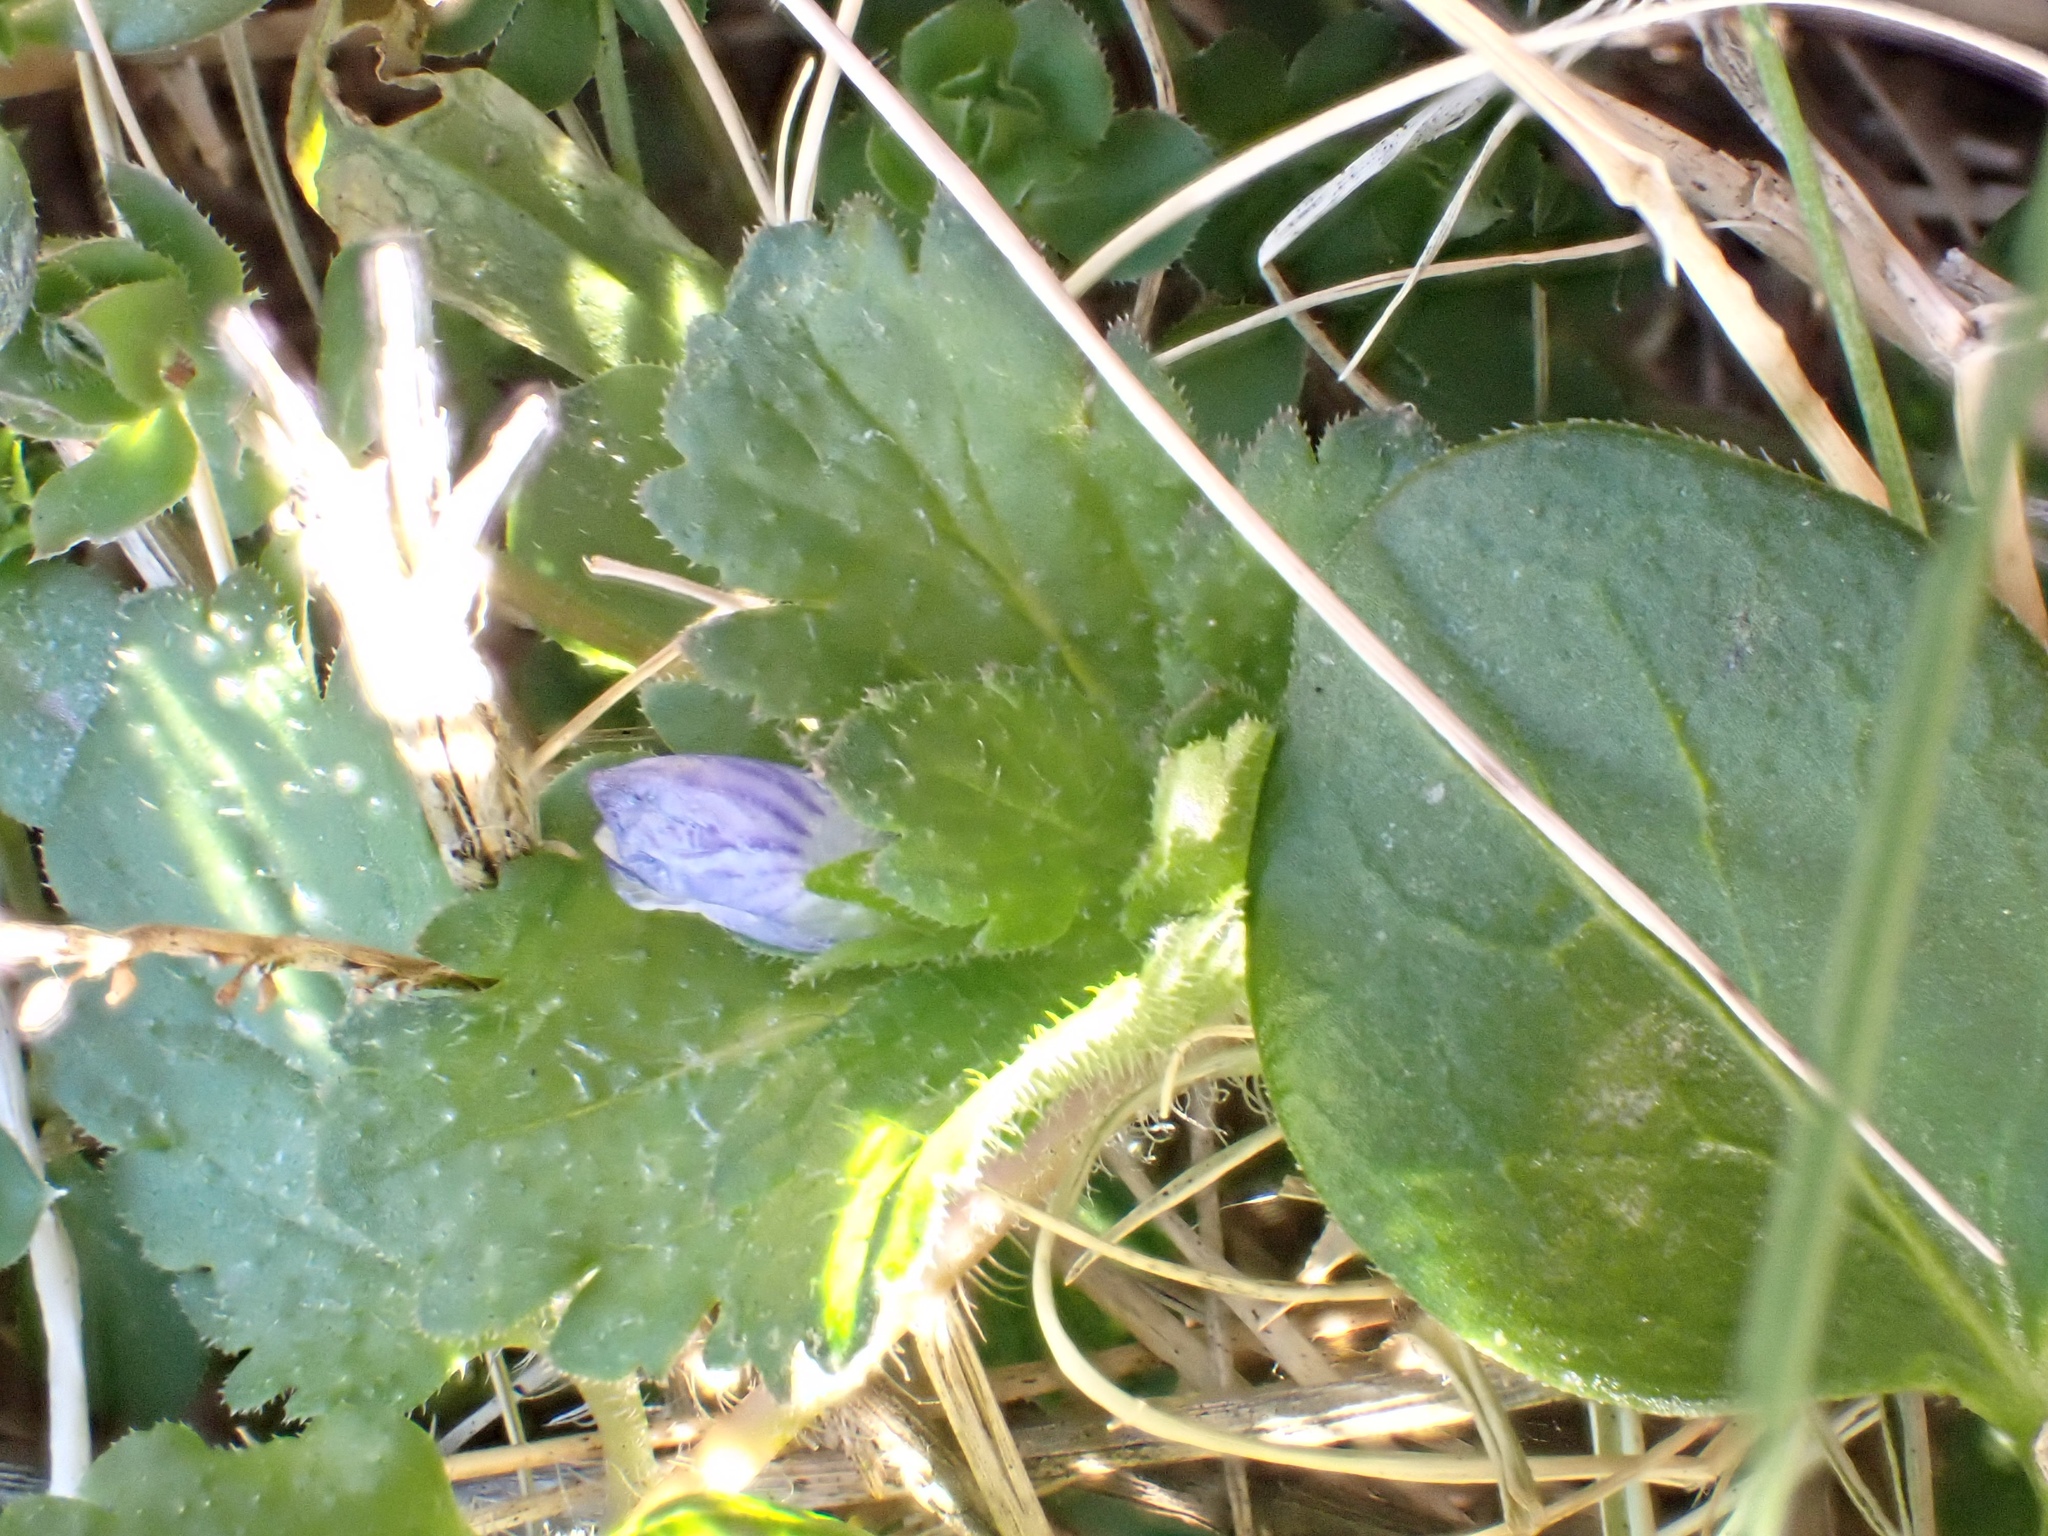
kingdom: Plantae
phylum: Tracheophyta
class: Magnoliopsida
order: Lamiales
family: Plantaginaceae
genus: Veronica
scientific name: Veronica persica
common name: Common field-speedwell
